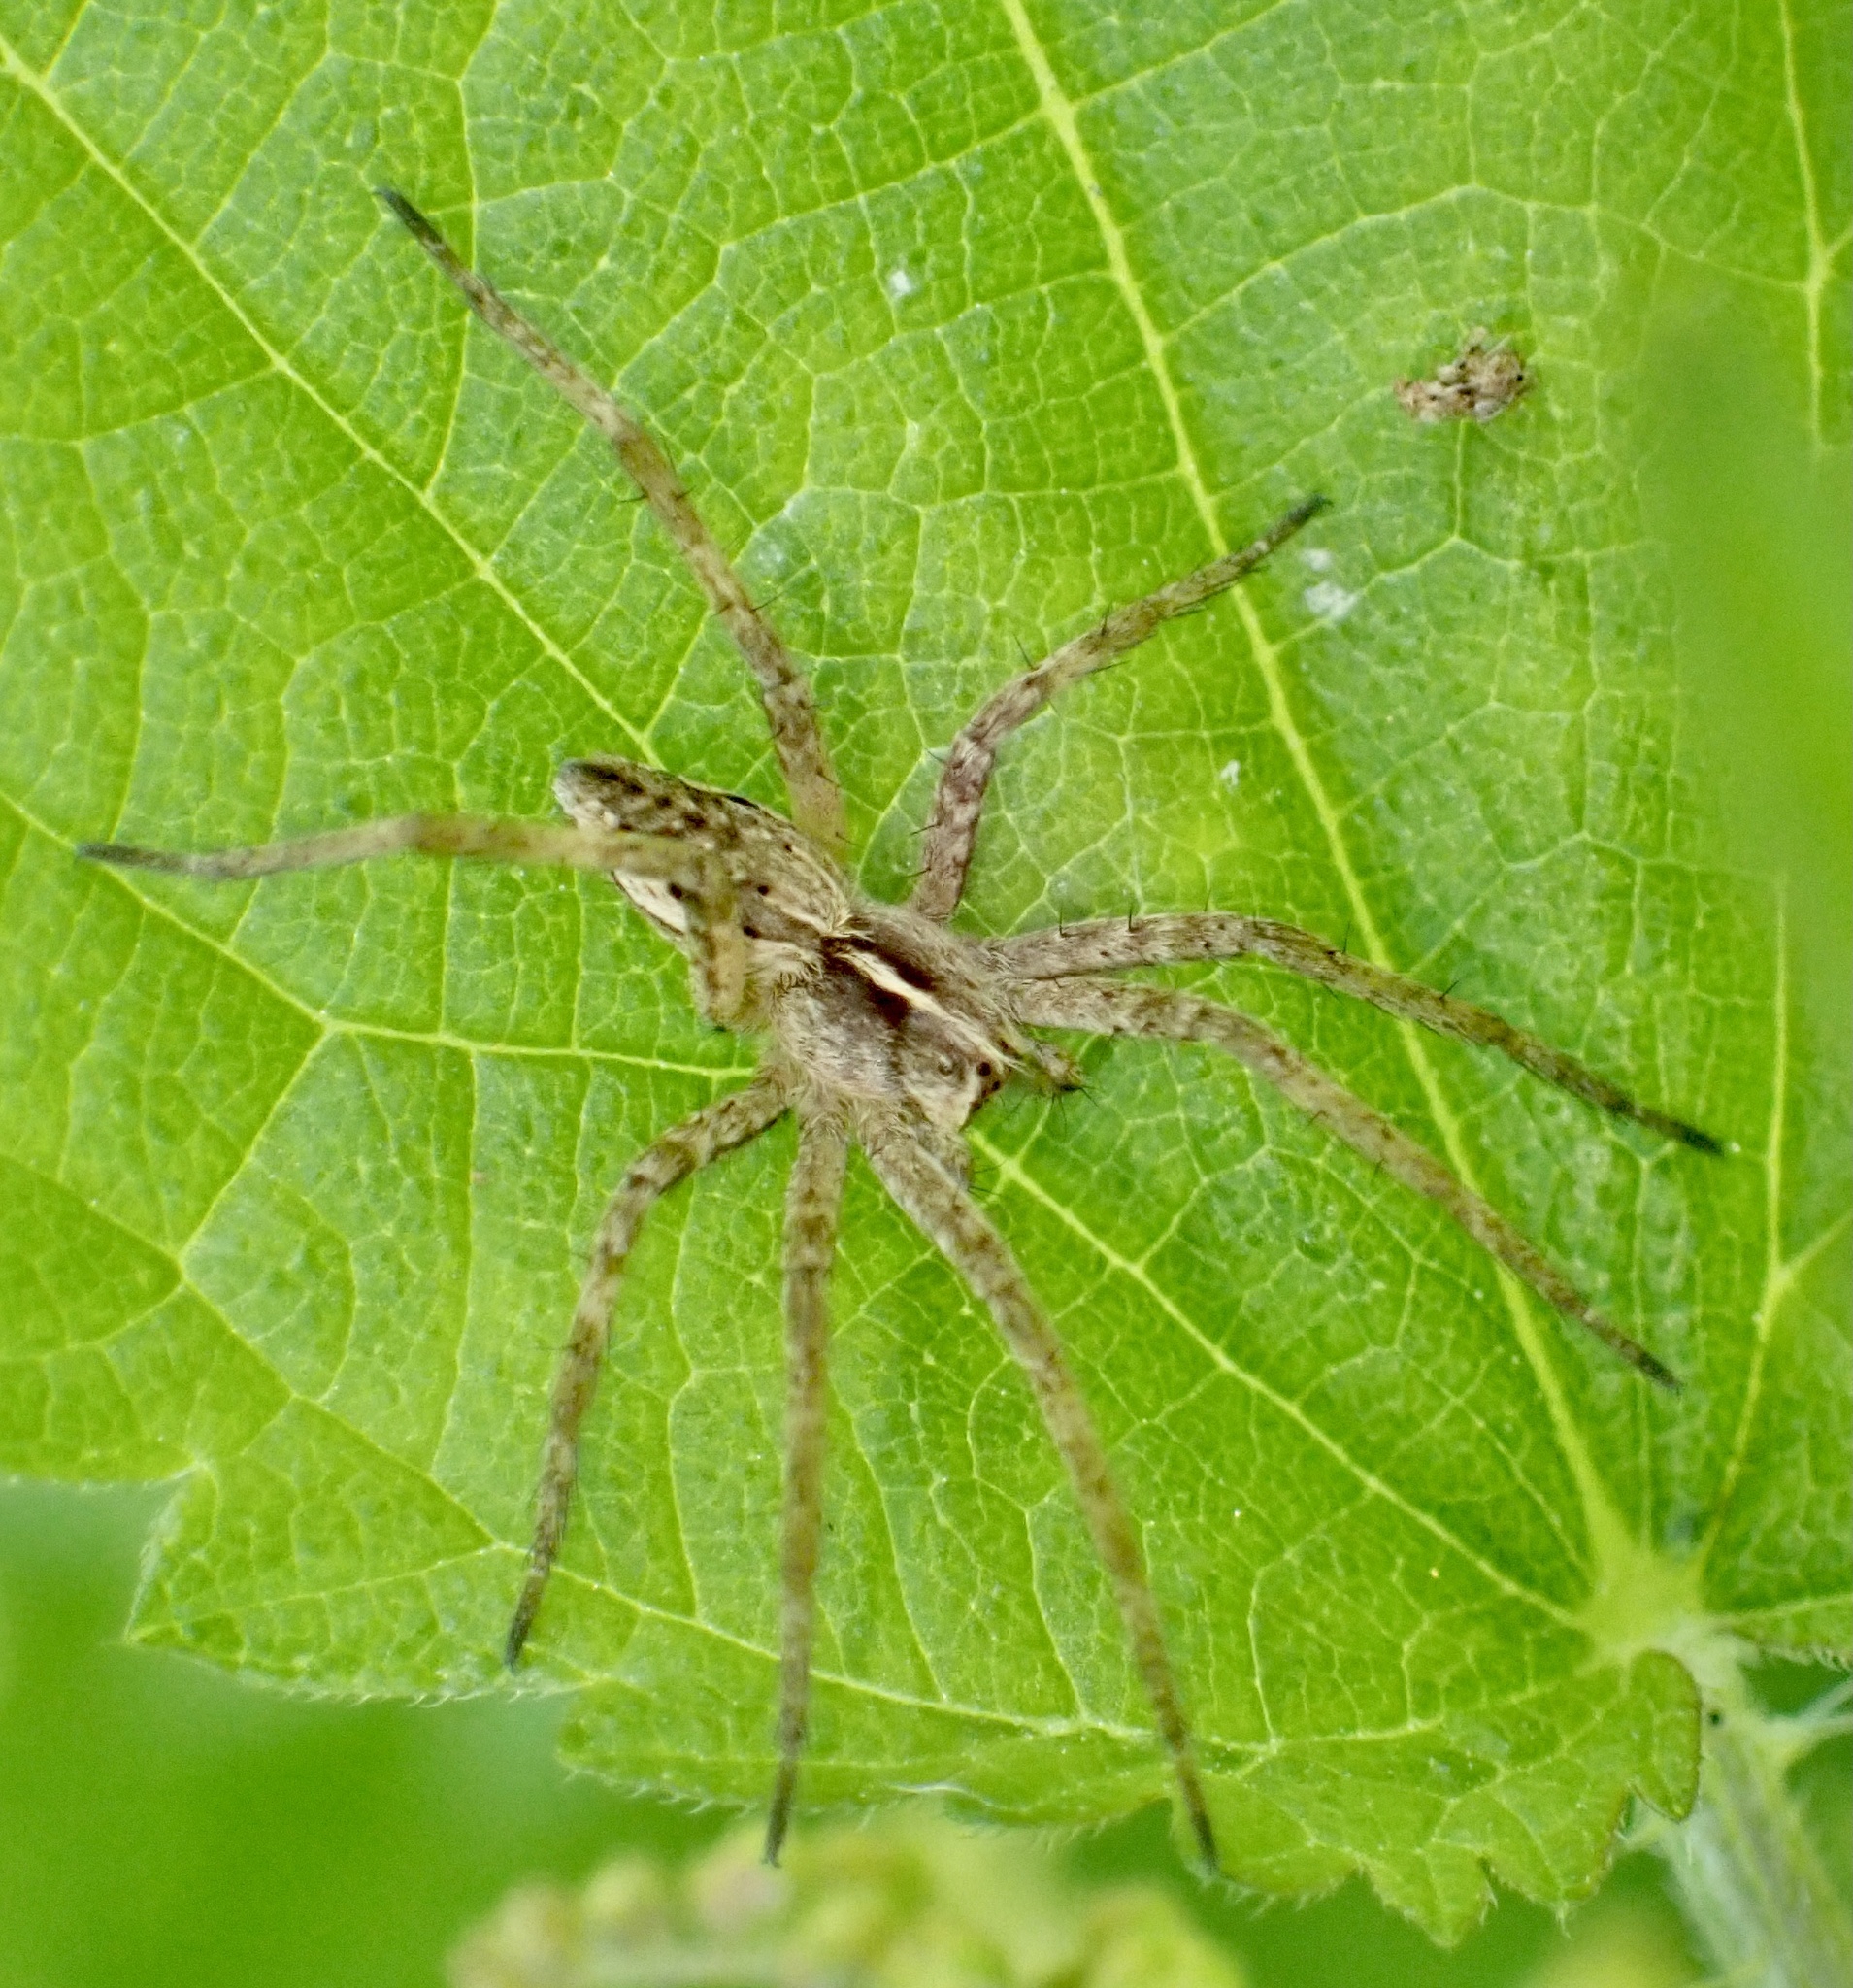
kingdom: Animalia
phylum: Arthropoda
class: Arachnida
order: Araneae
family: Pisauridae
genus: Pisaura
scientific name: Pisaura mirabilis
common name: Tent spider
